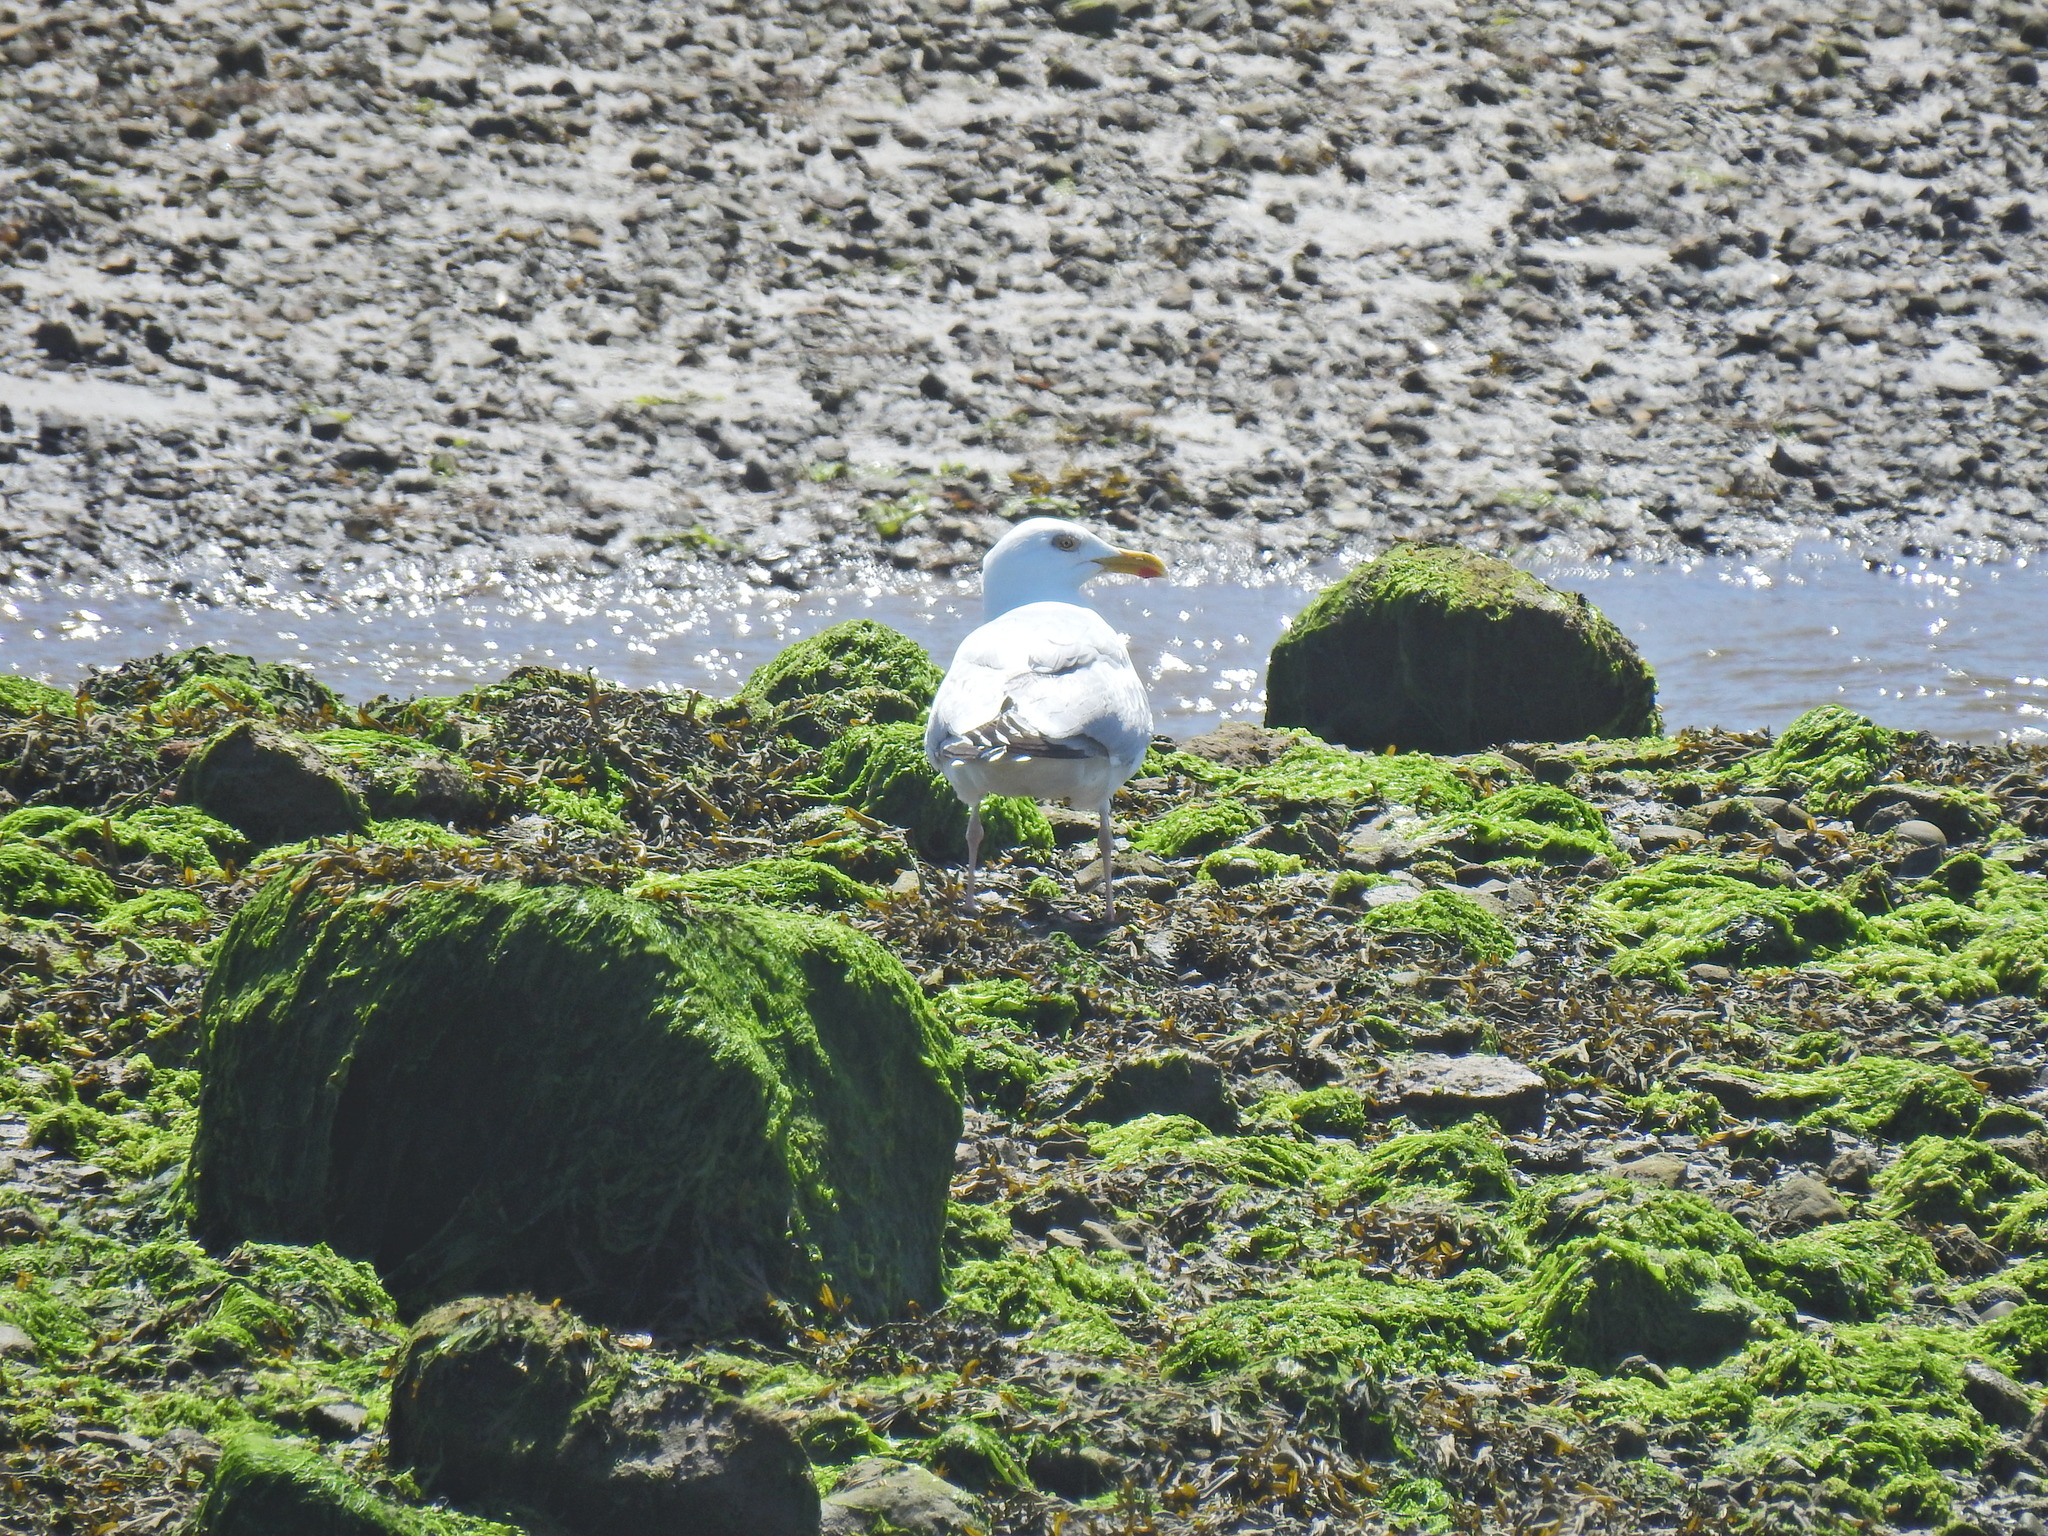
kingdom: Animalia
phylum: Chordata
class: Aves
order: Charadriiformes
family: Laridae
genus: Larus
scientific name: Larus argentatus
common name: Herring gull
